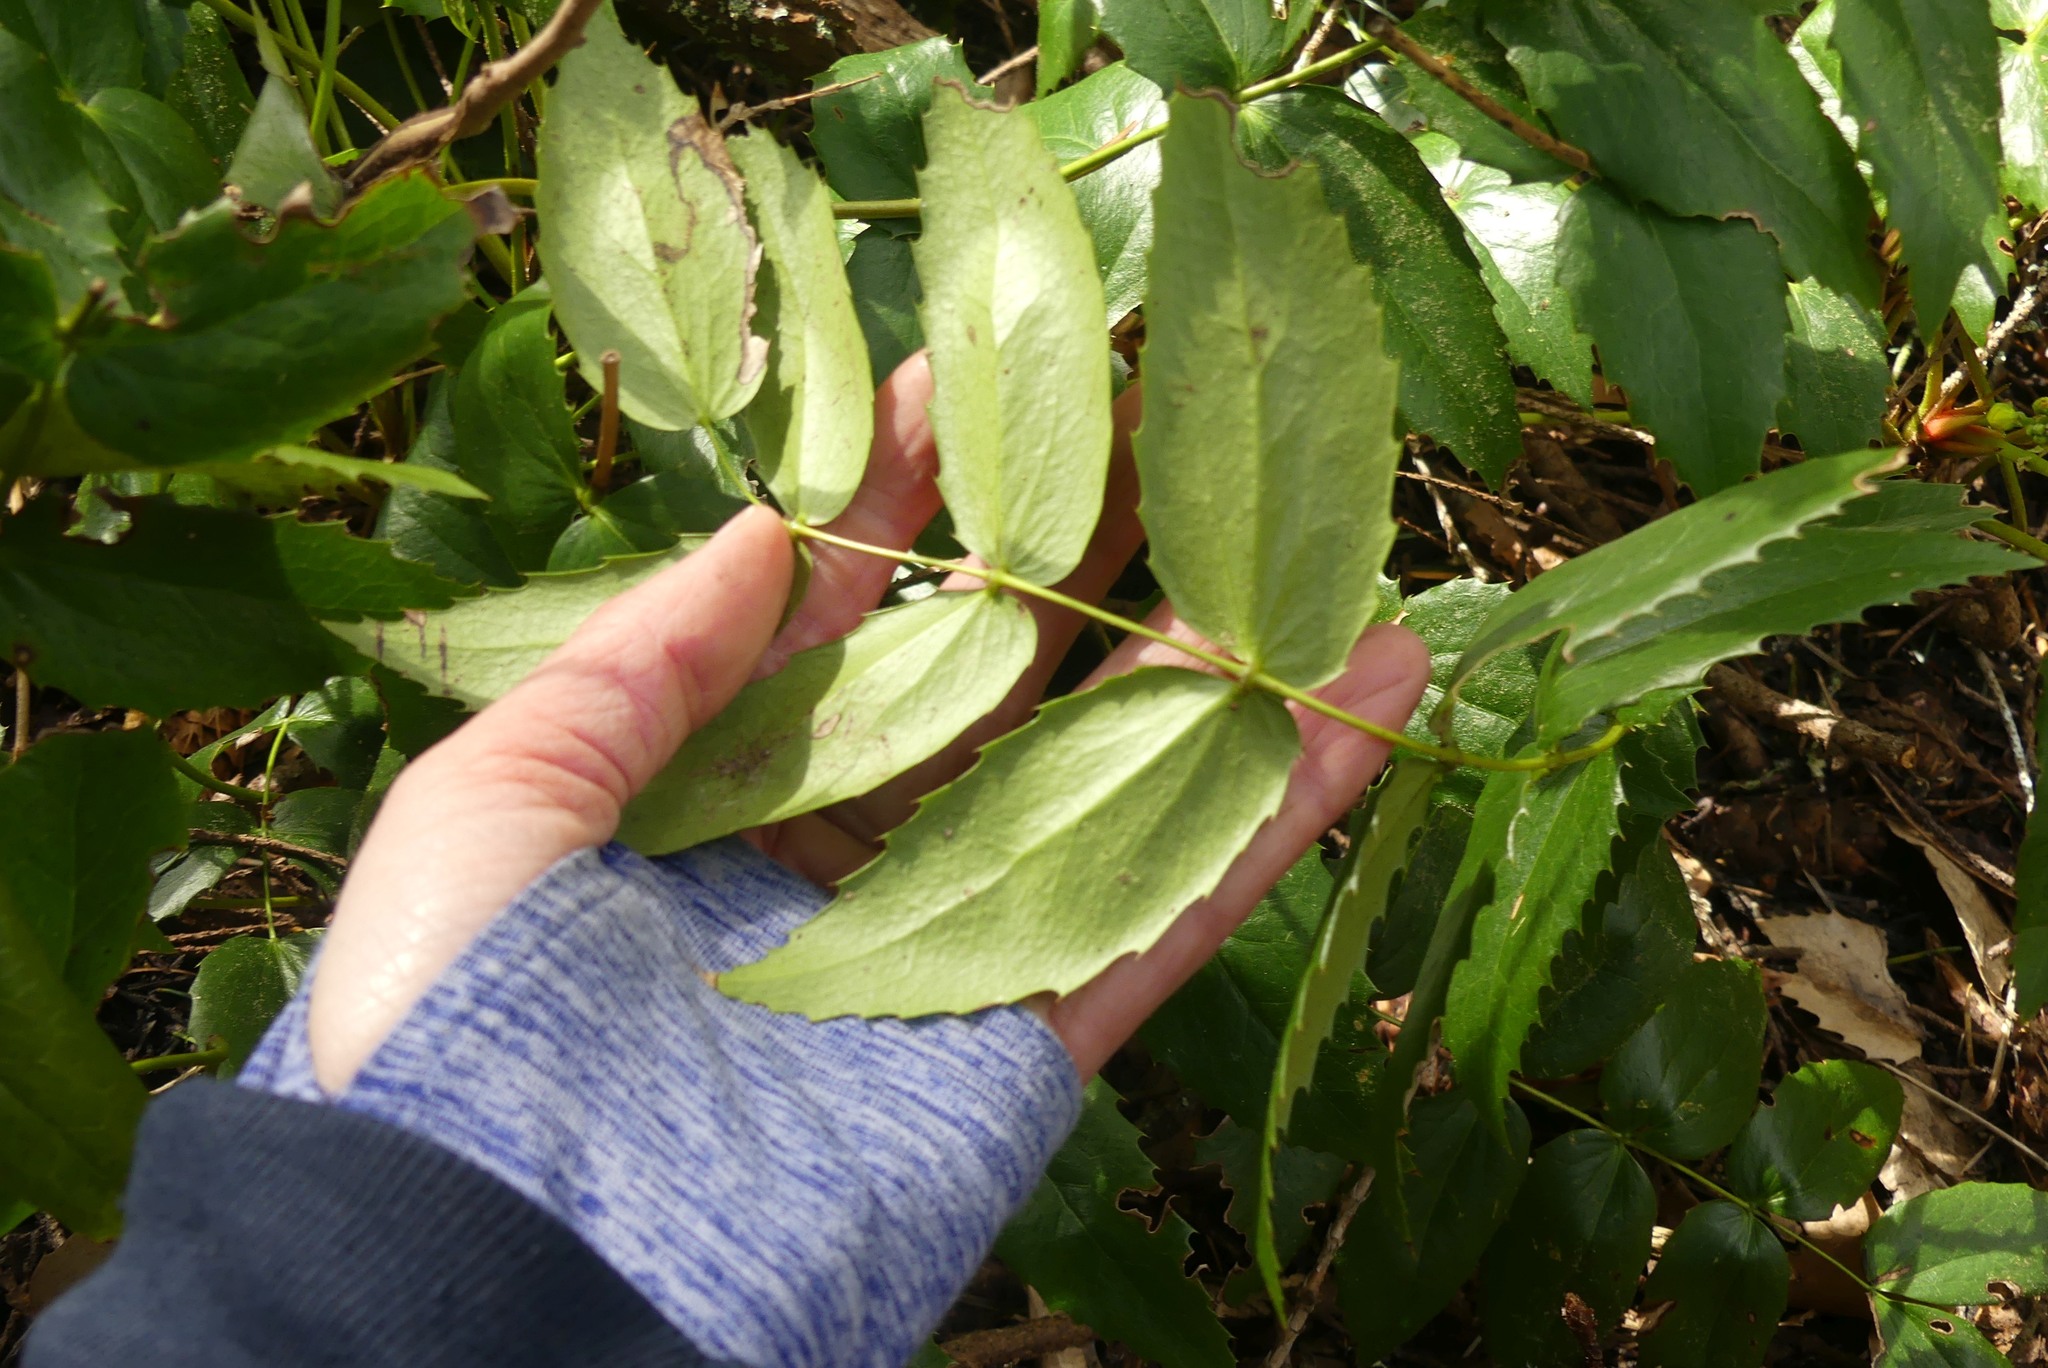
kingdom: Plantae
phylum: Tracheophyta
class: Magnoliopsida
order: Ranunculales
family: Berberidaceae
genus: Mahonia
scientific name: Mahonia nervosa
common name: Cascade oregon-grape
